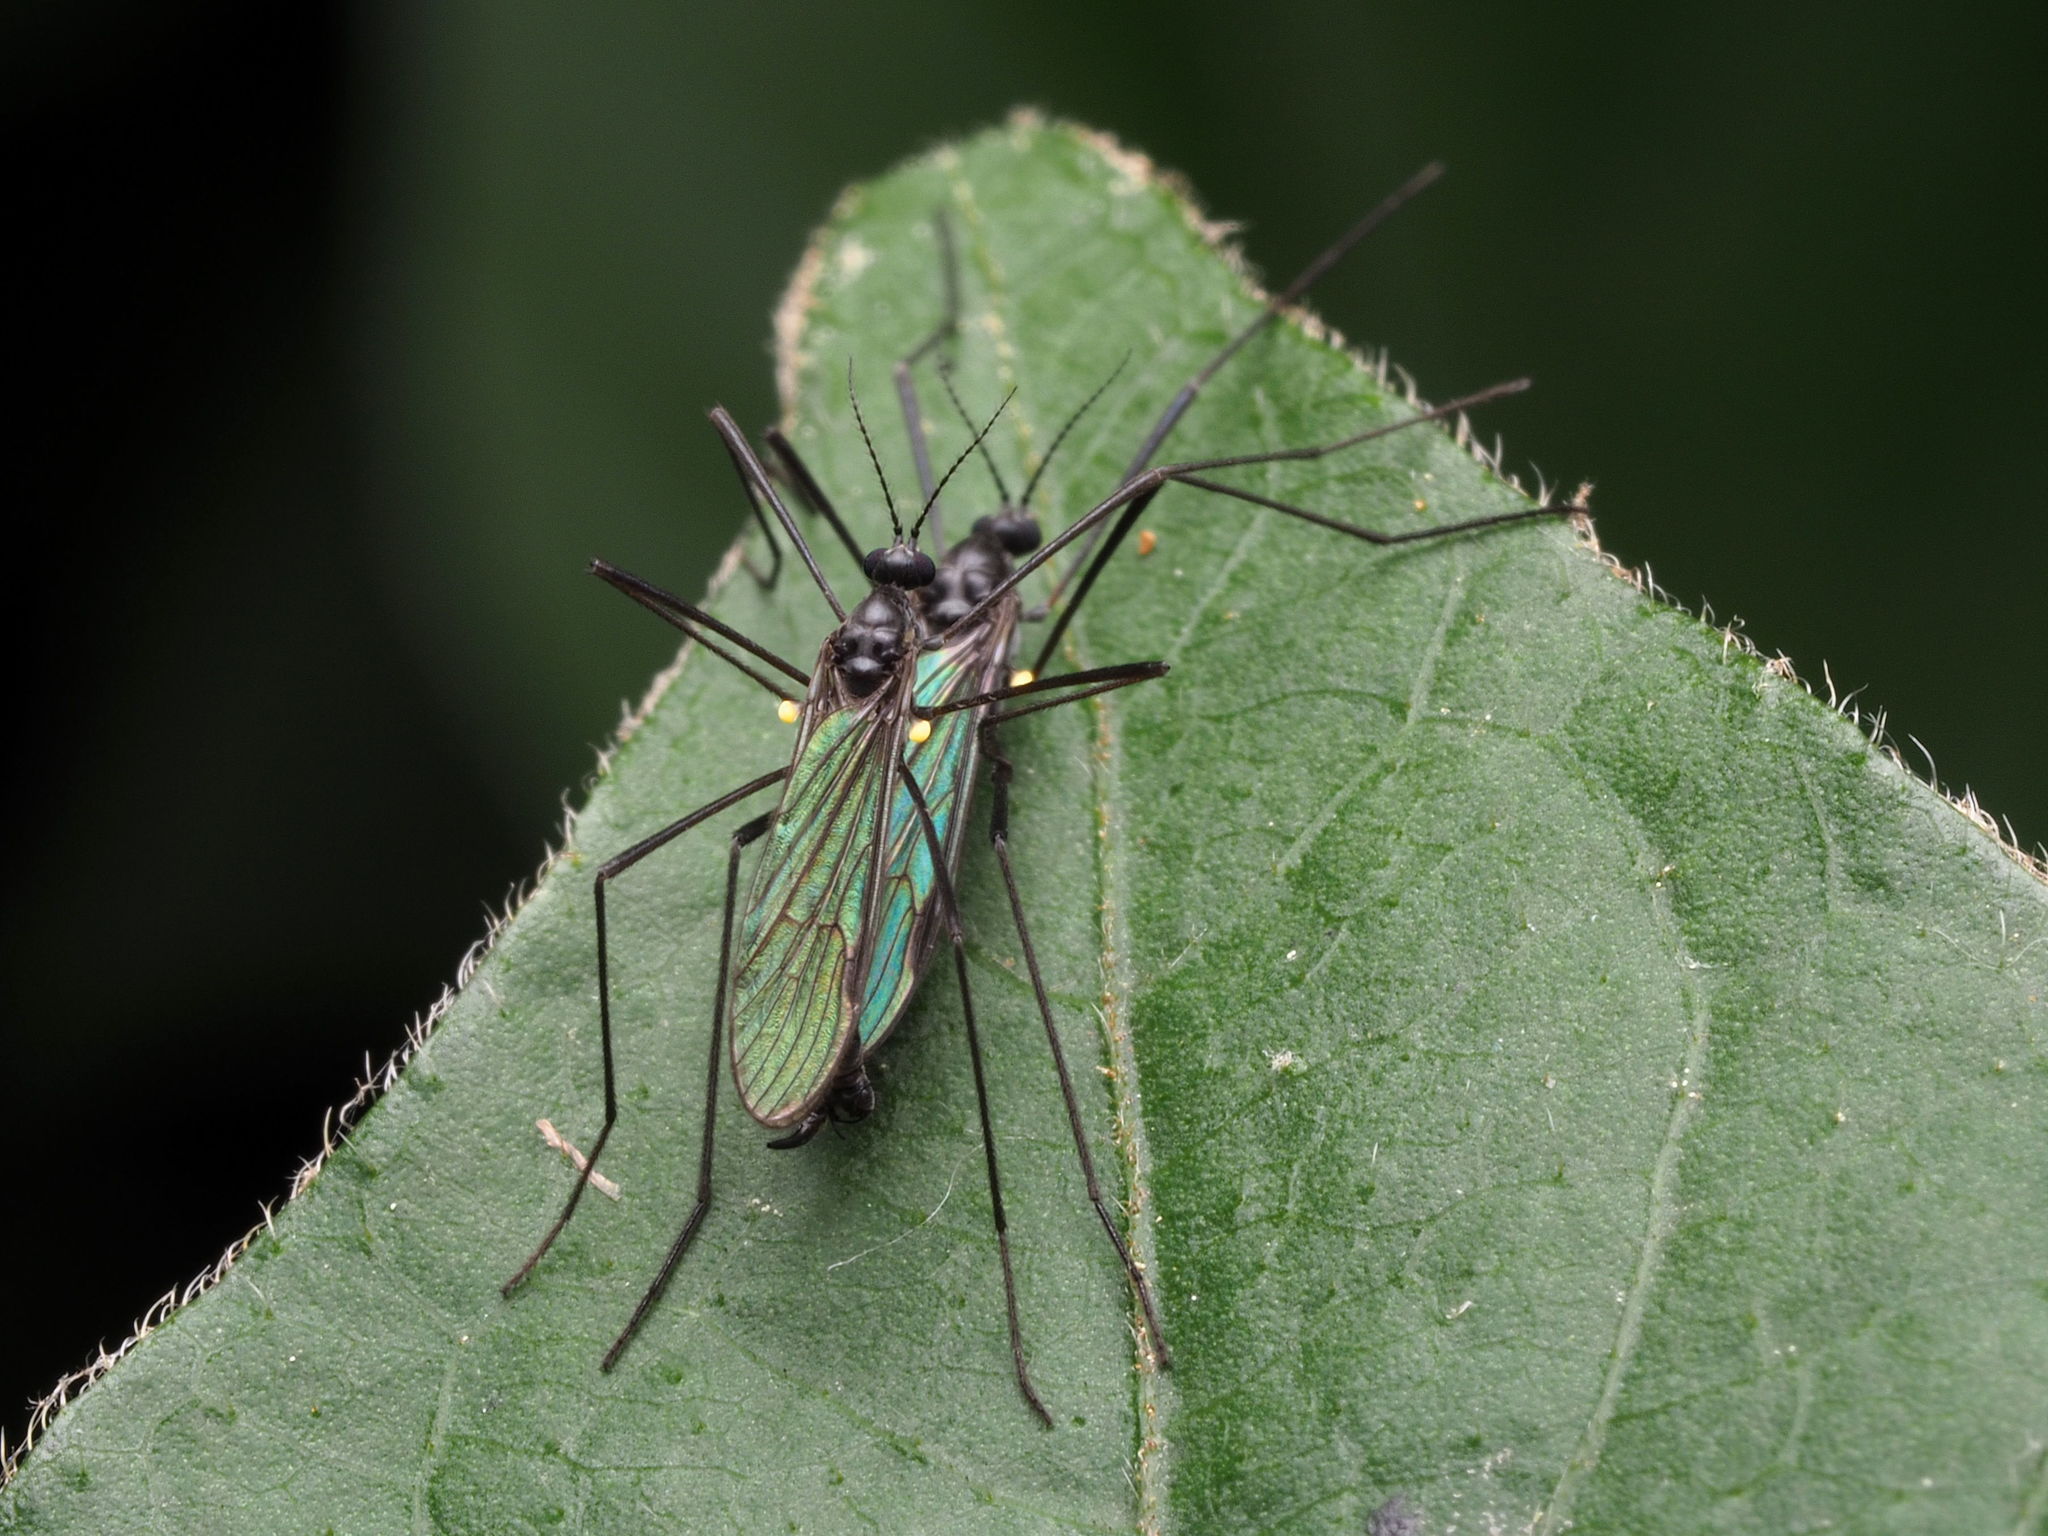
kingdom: Animalia
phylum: Arthropoda
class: Insecta
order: Diptera
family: Limoniidae
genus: Gnophomyia
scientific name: Gnophomyia tristissima
